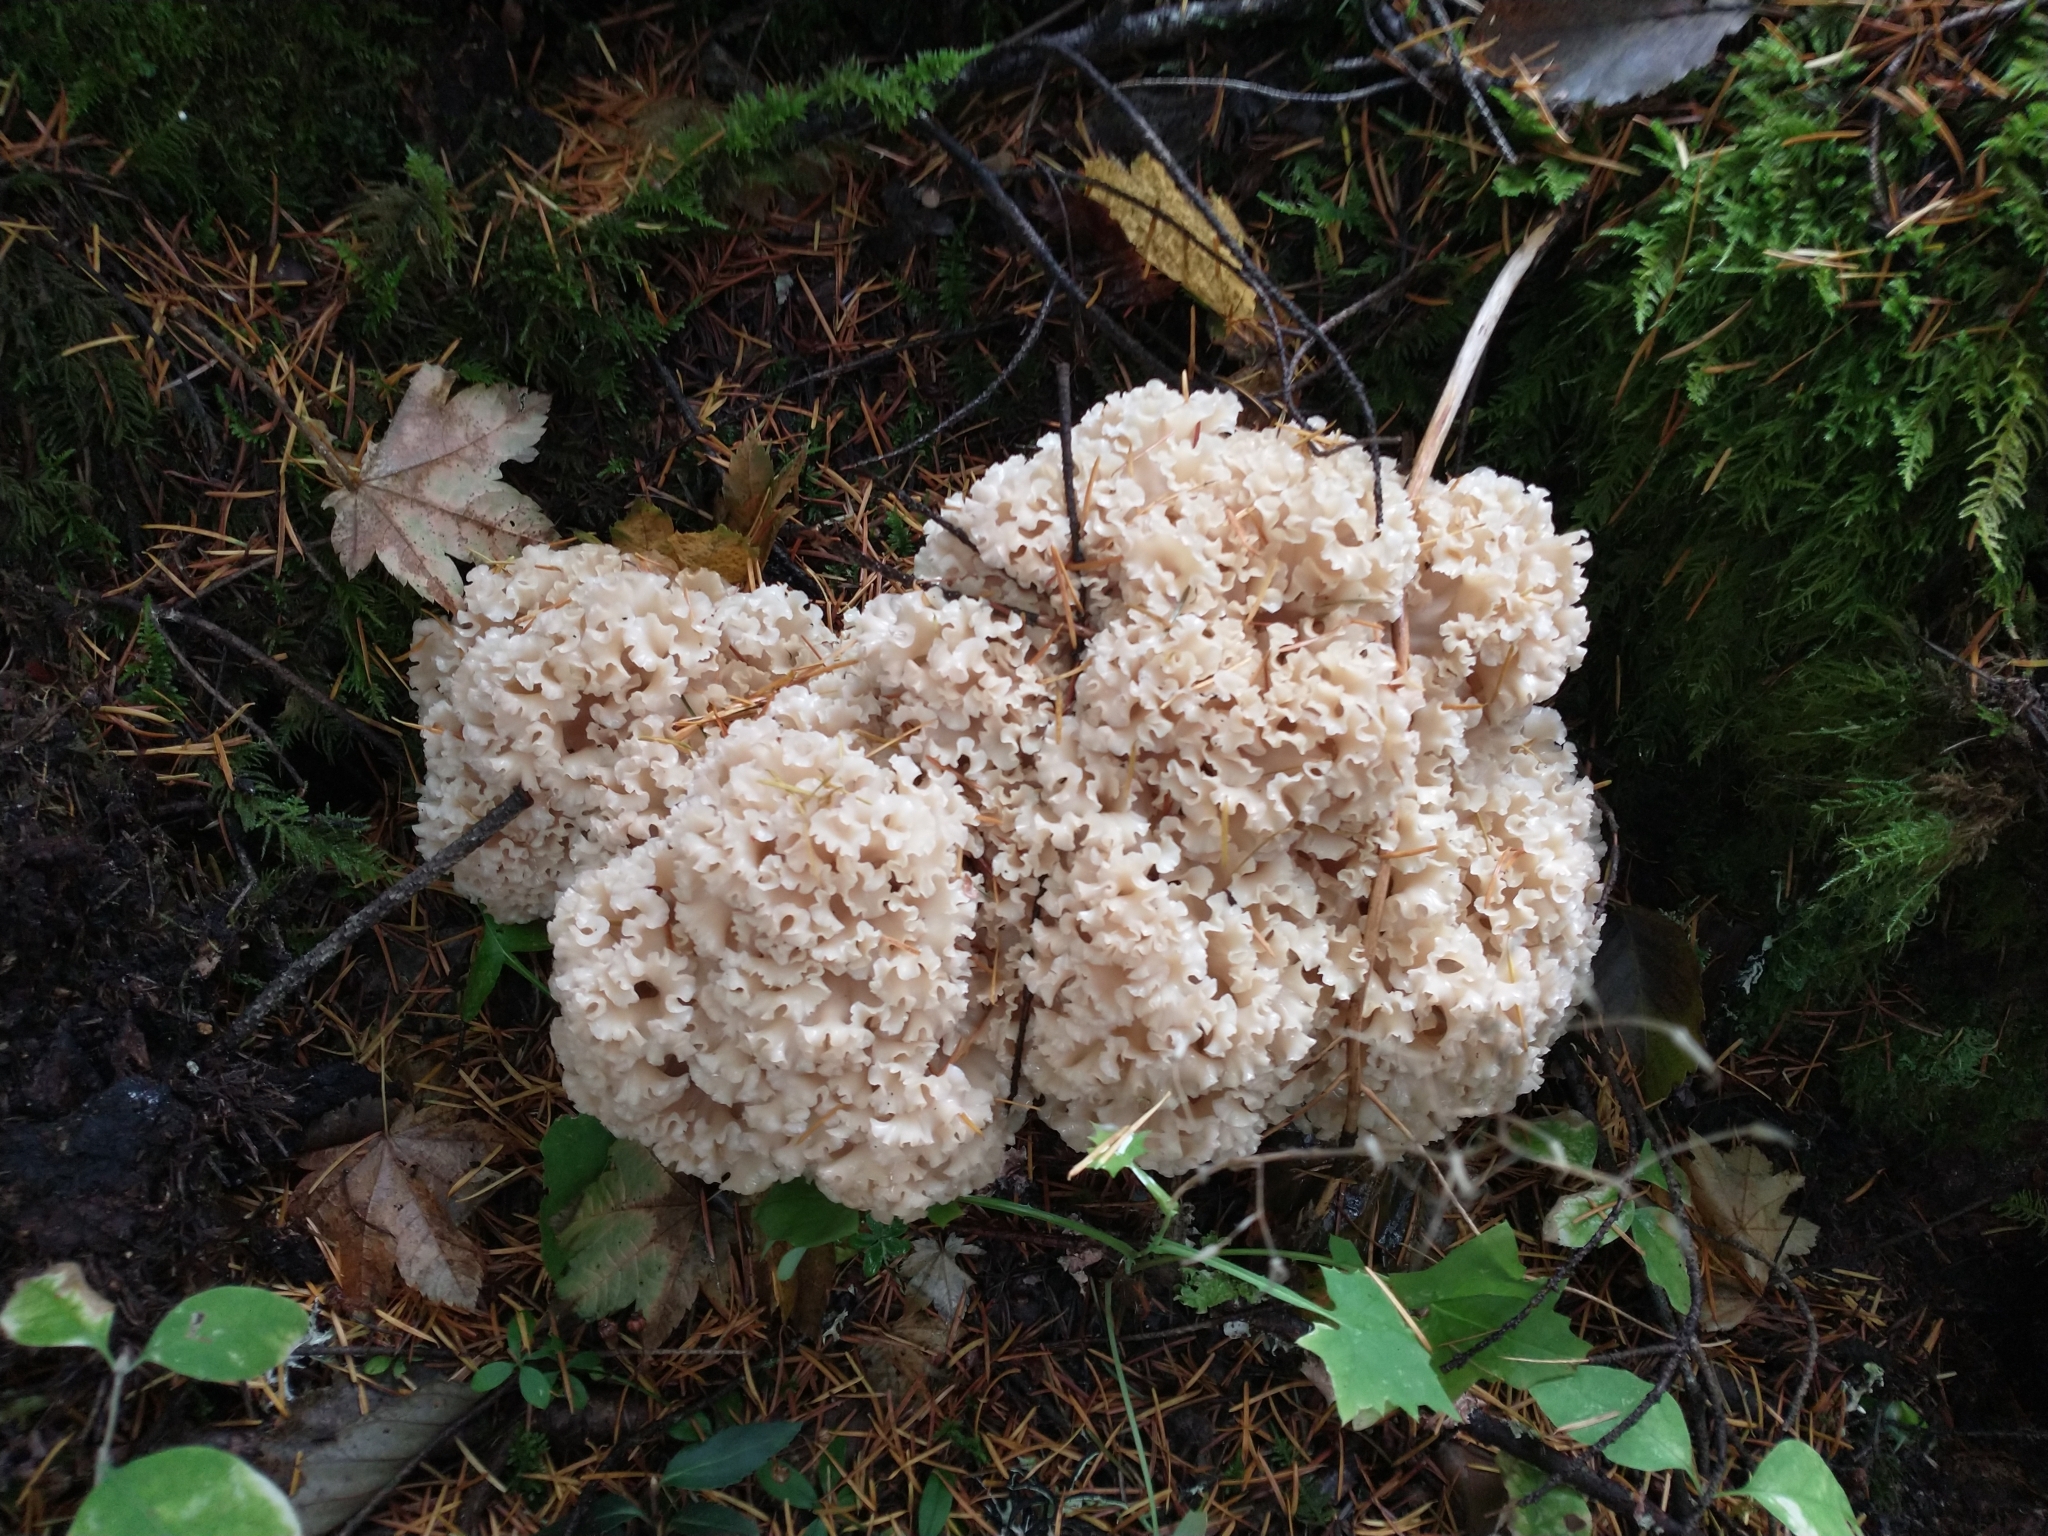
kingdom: Fungi
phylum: Basidiomycota
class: Agaricomycetes
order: Polyporales
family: Sparassidaceae
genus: Sparassis
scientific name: Sparassis radicata
